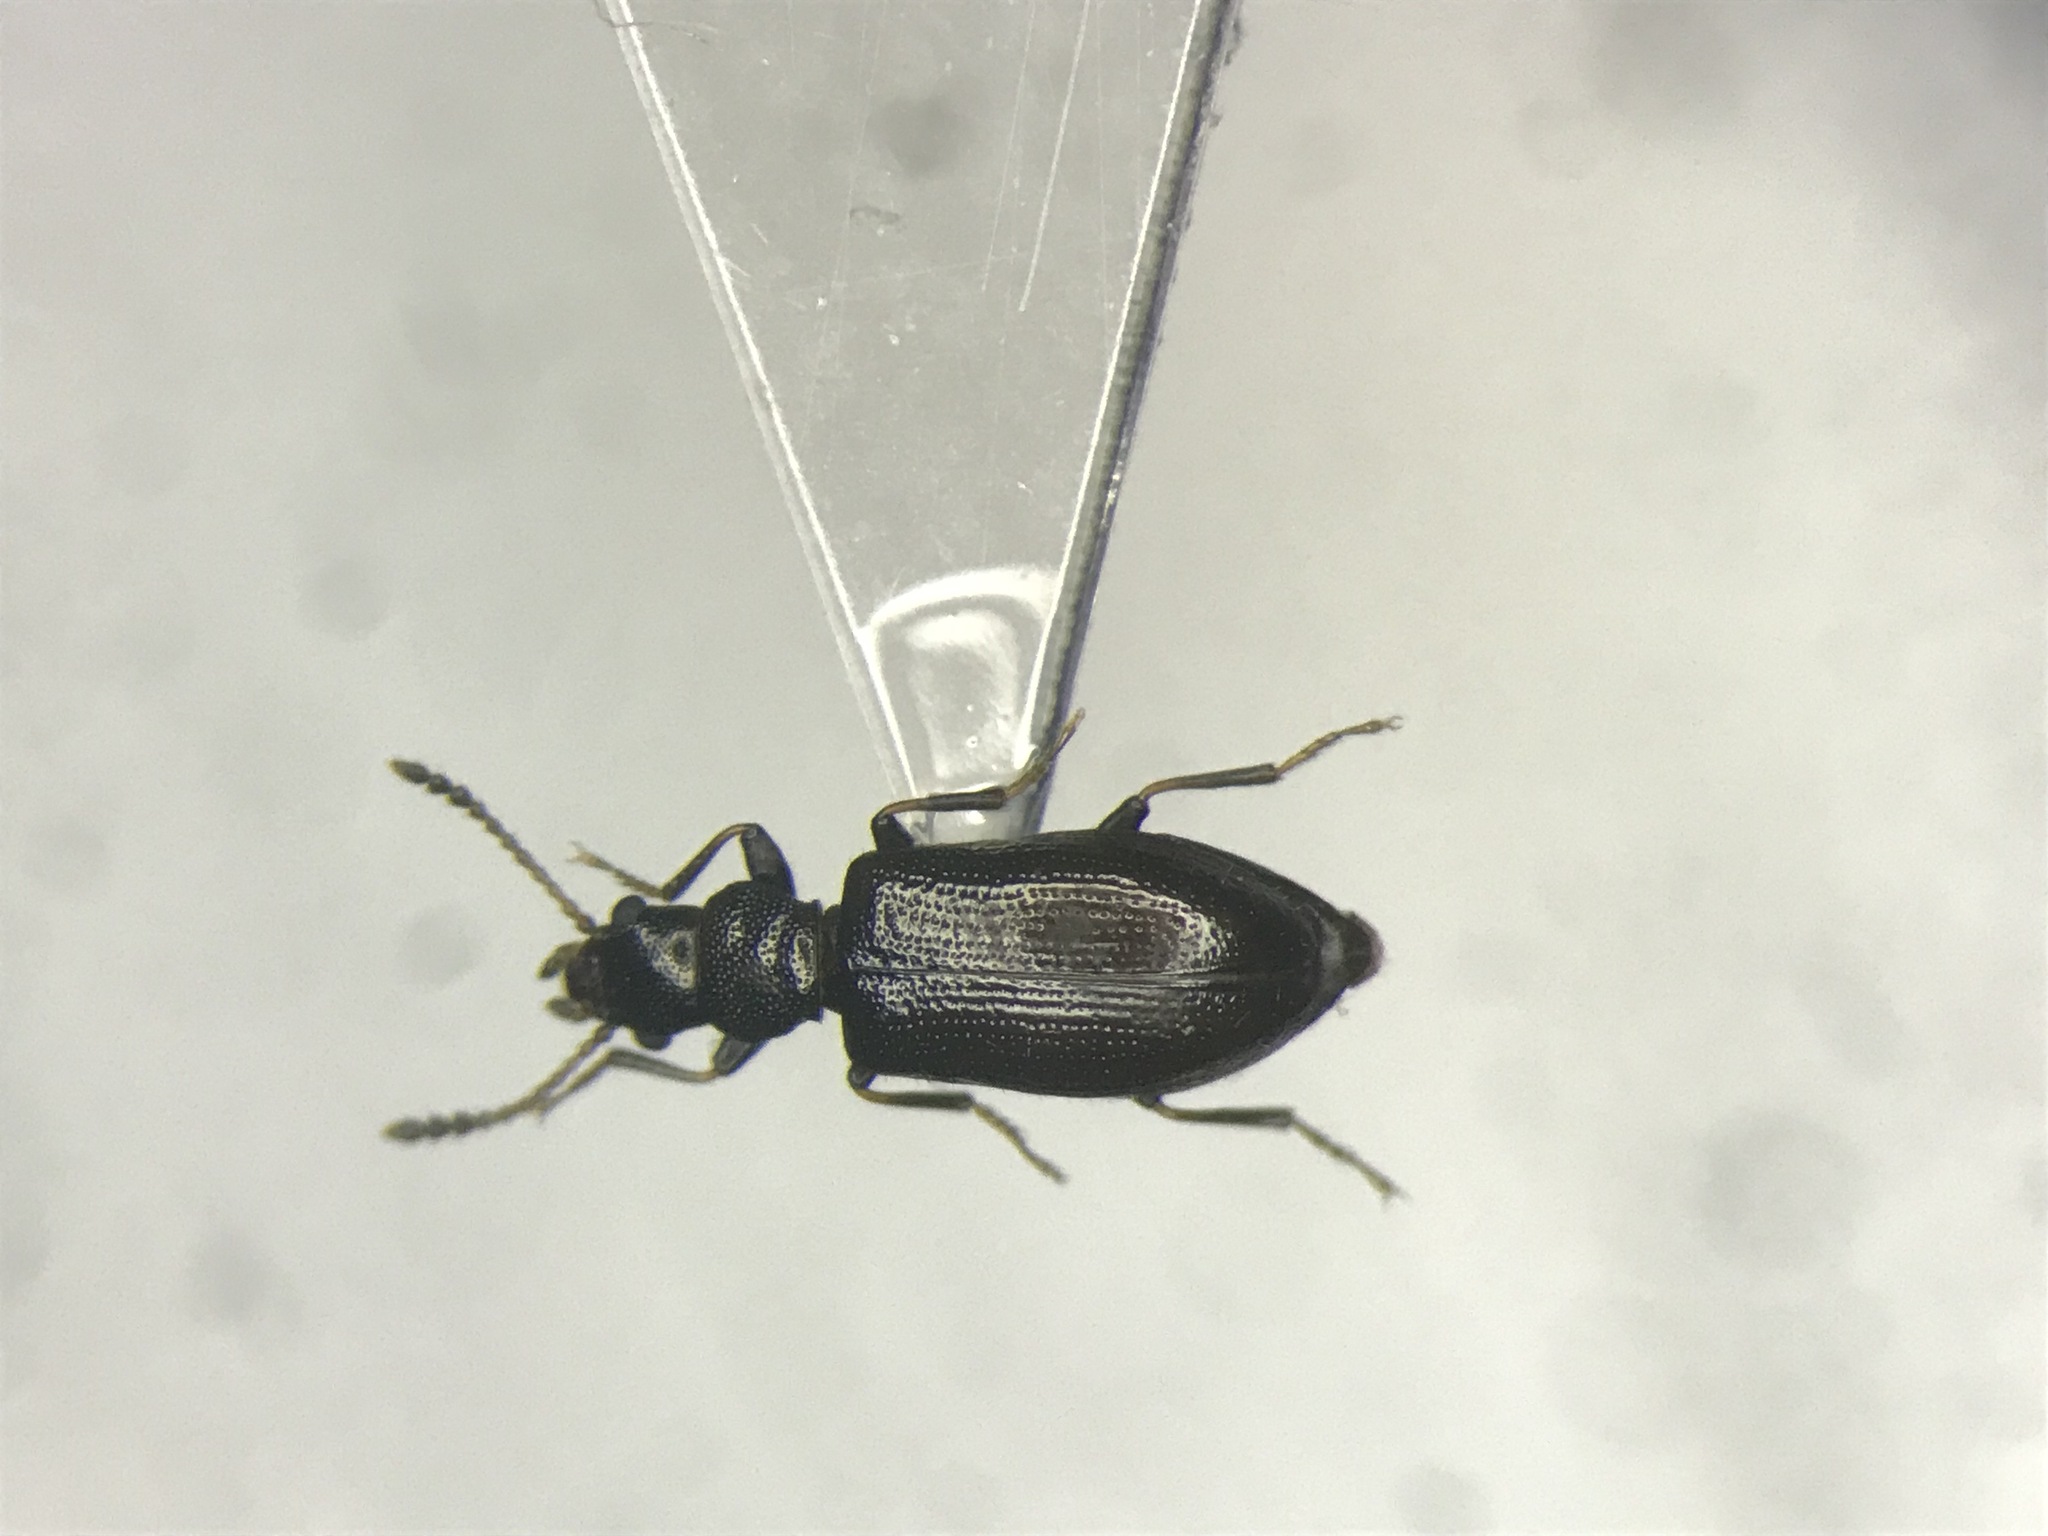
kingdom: Animalia
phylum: Arthropoda
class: Insecta
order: Coleoptera
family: Salpingidae
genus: Sphaeriestes
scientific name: Sphaeriestes virescens
